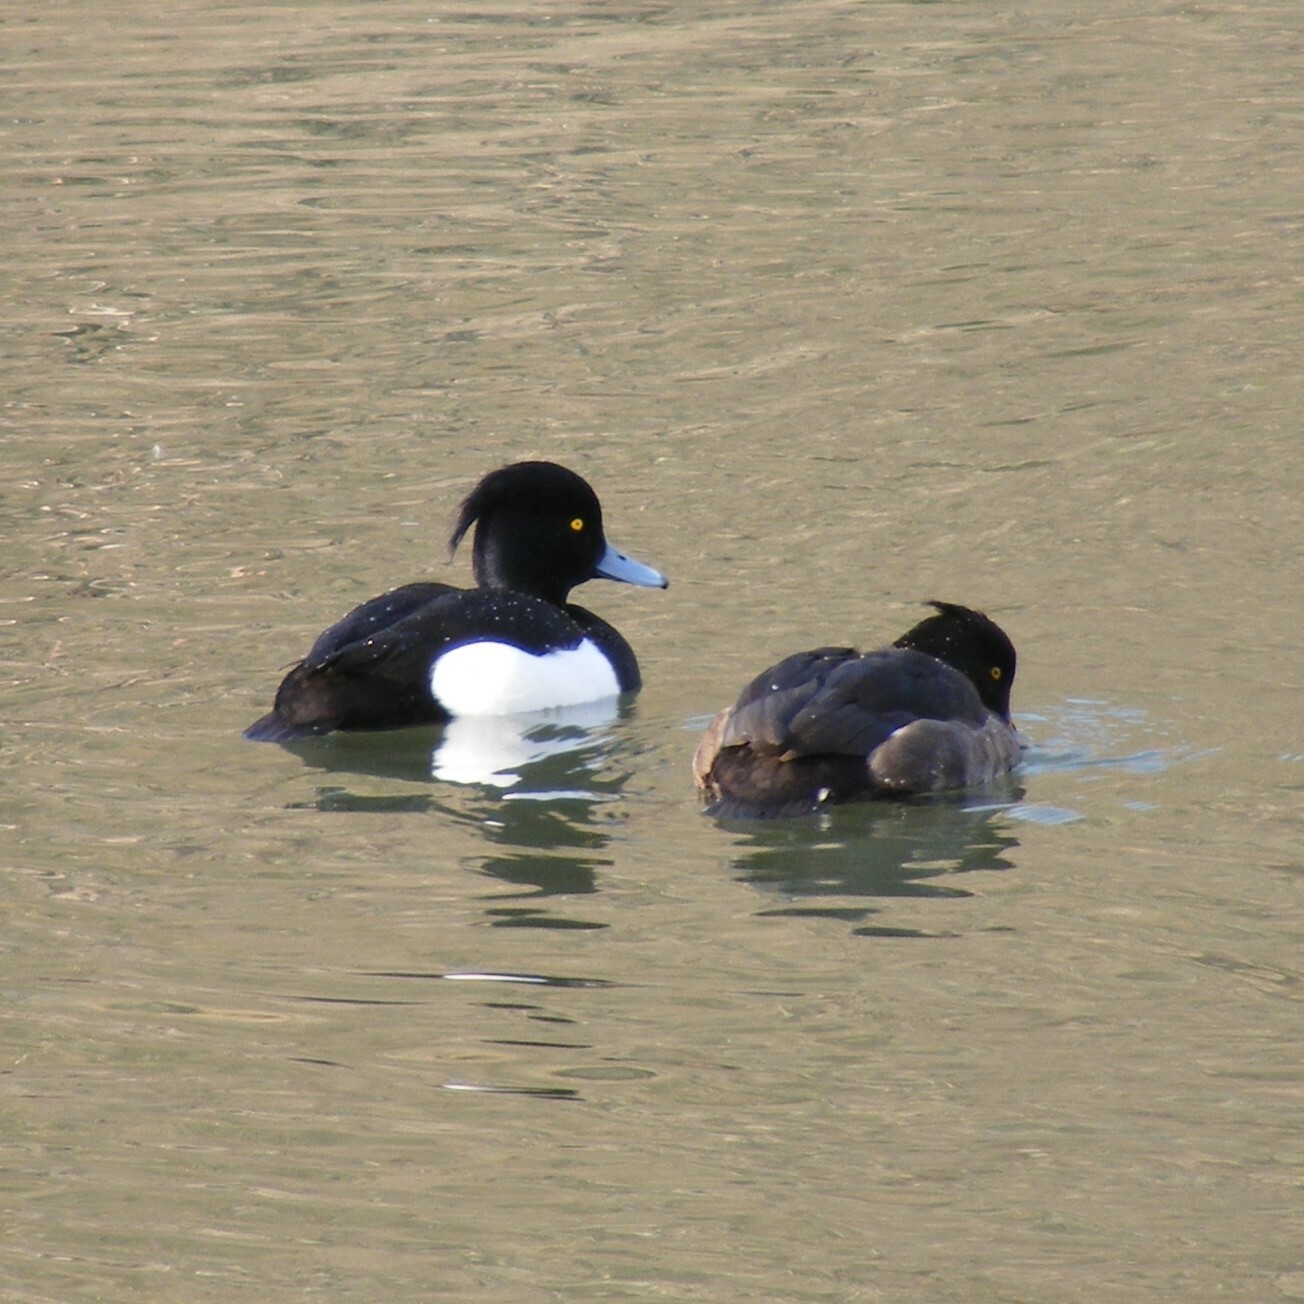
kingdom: Animalia
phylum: Chordata
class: Aves
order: Anseriformes
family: Anatidae
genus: Aythya
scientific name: Aythya fuligula
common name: Tufted duck
